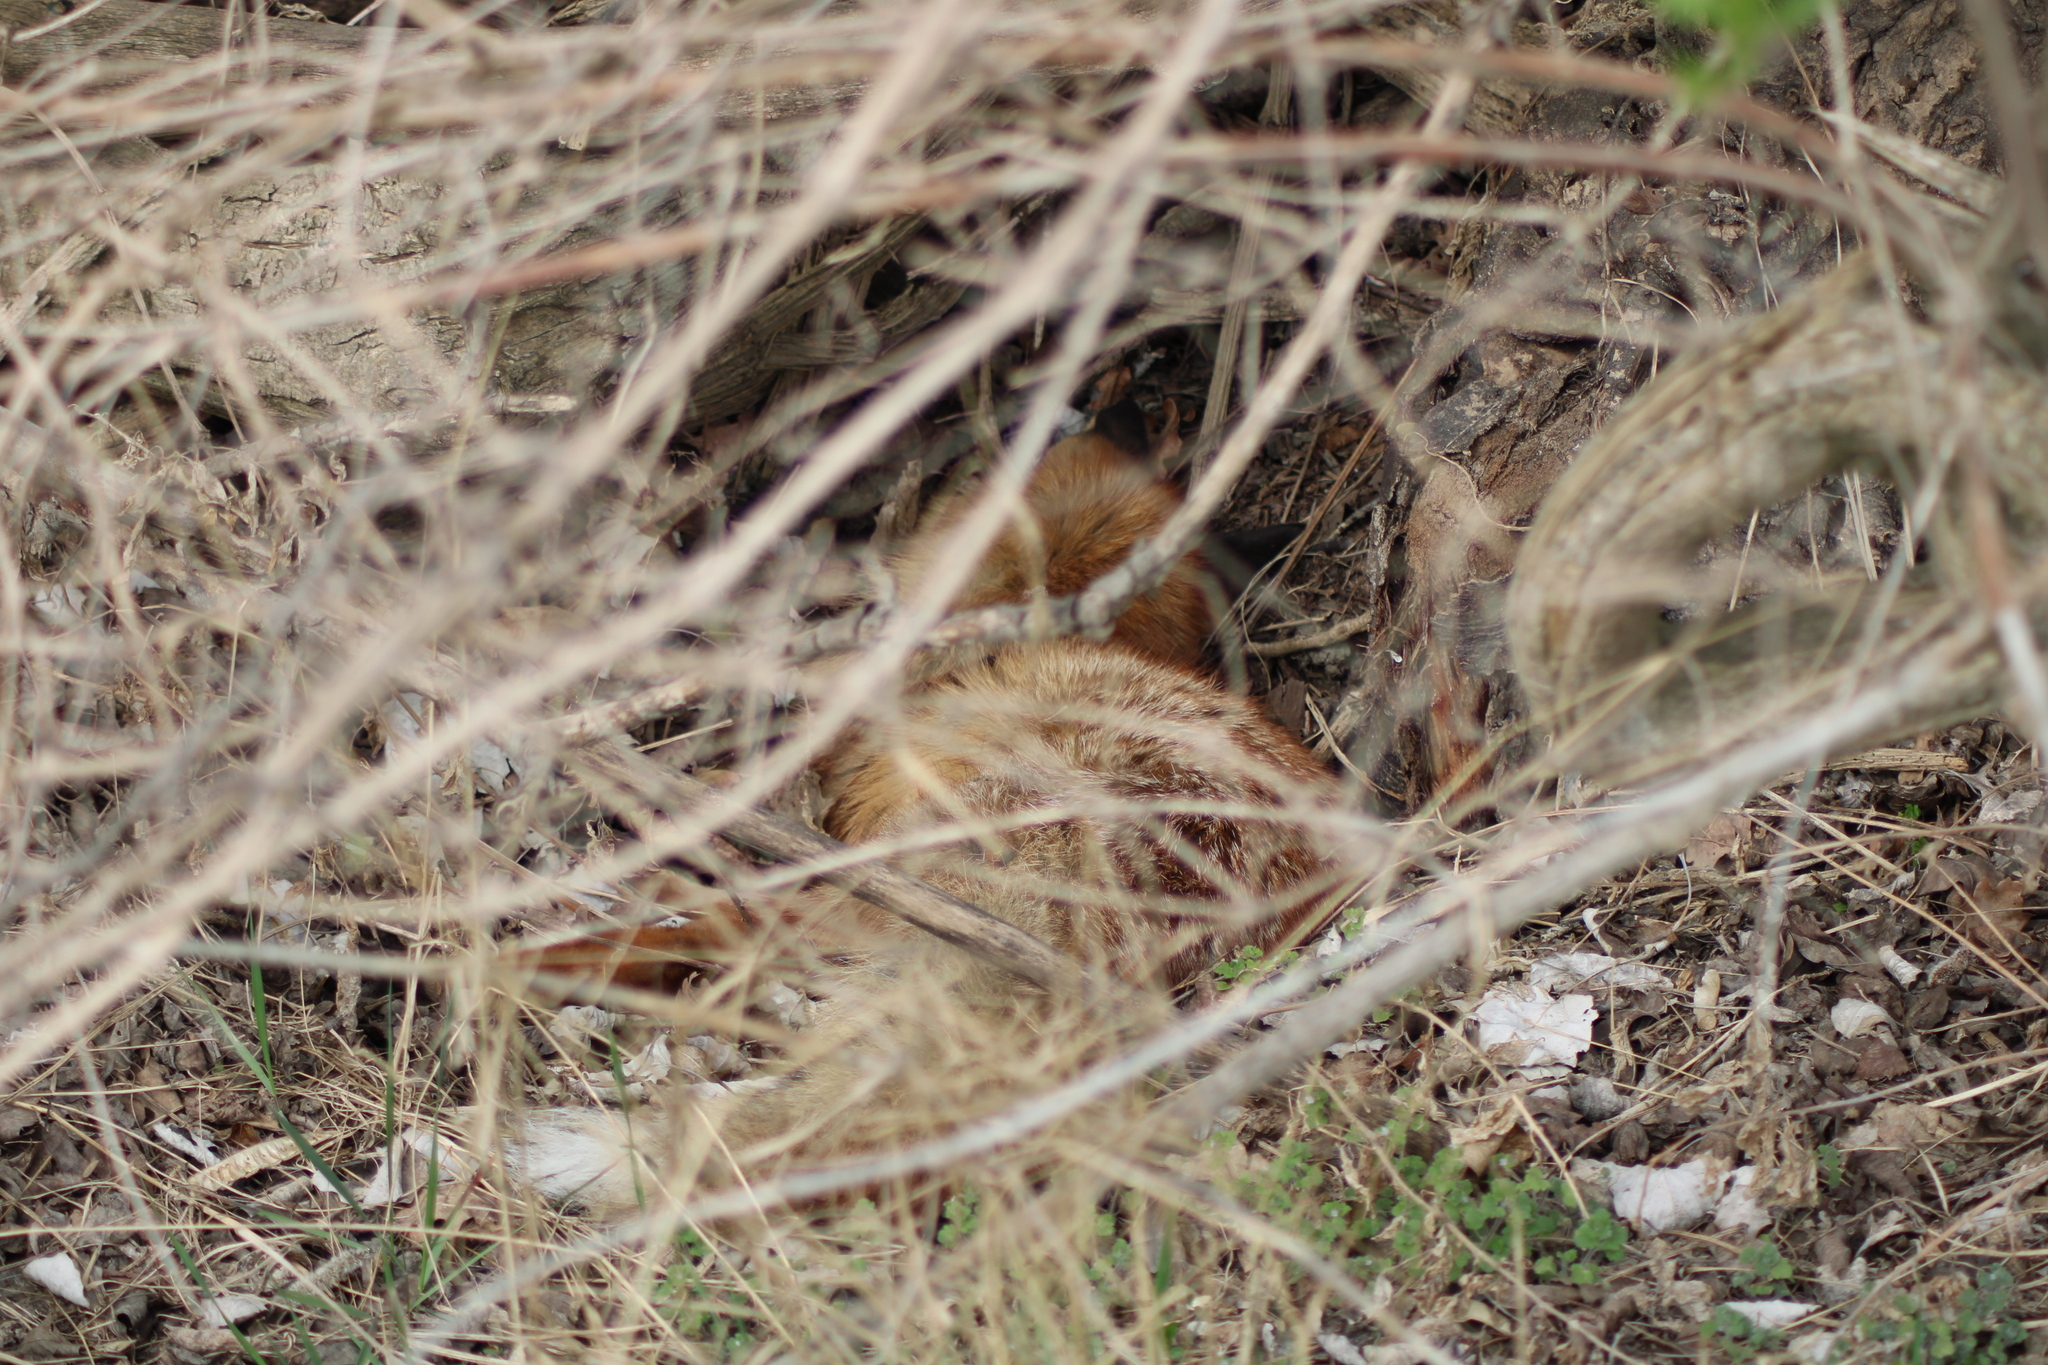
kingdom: Animalia
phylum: Chordata
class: Mammalia
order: Carnivora
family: Canidae
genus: Vulpes
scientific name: Vulpes vulpes
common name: Red fox
